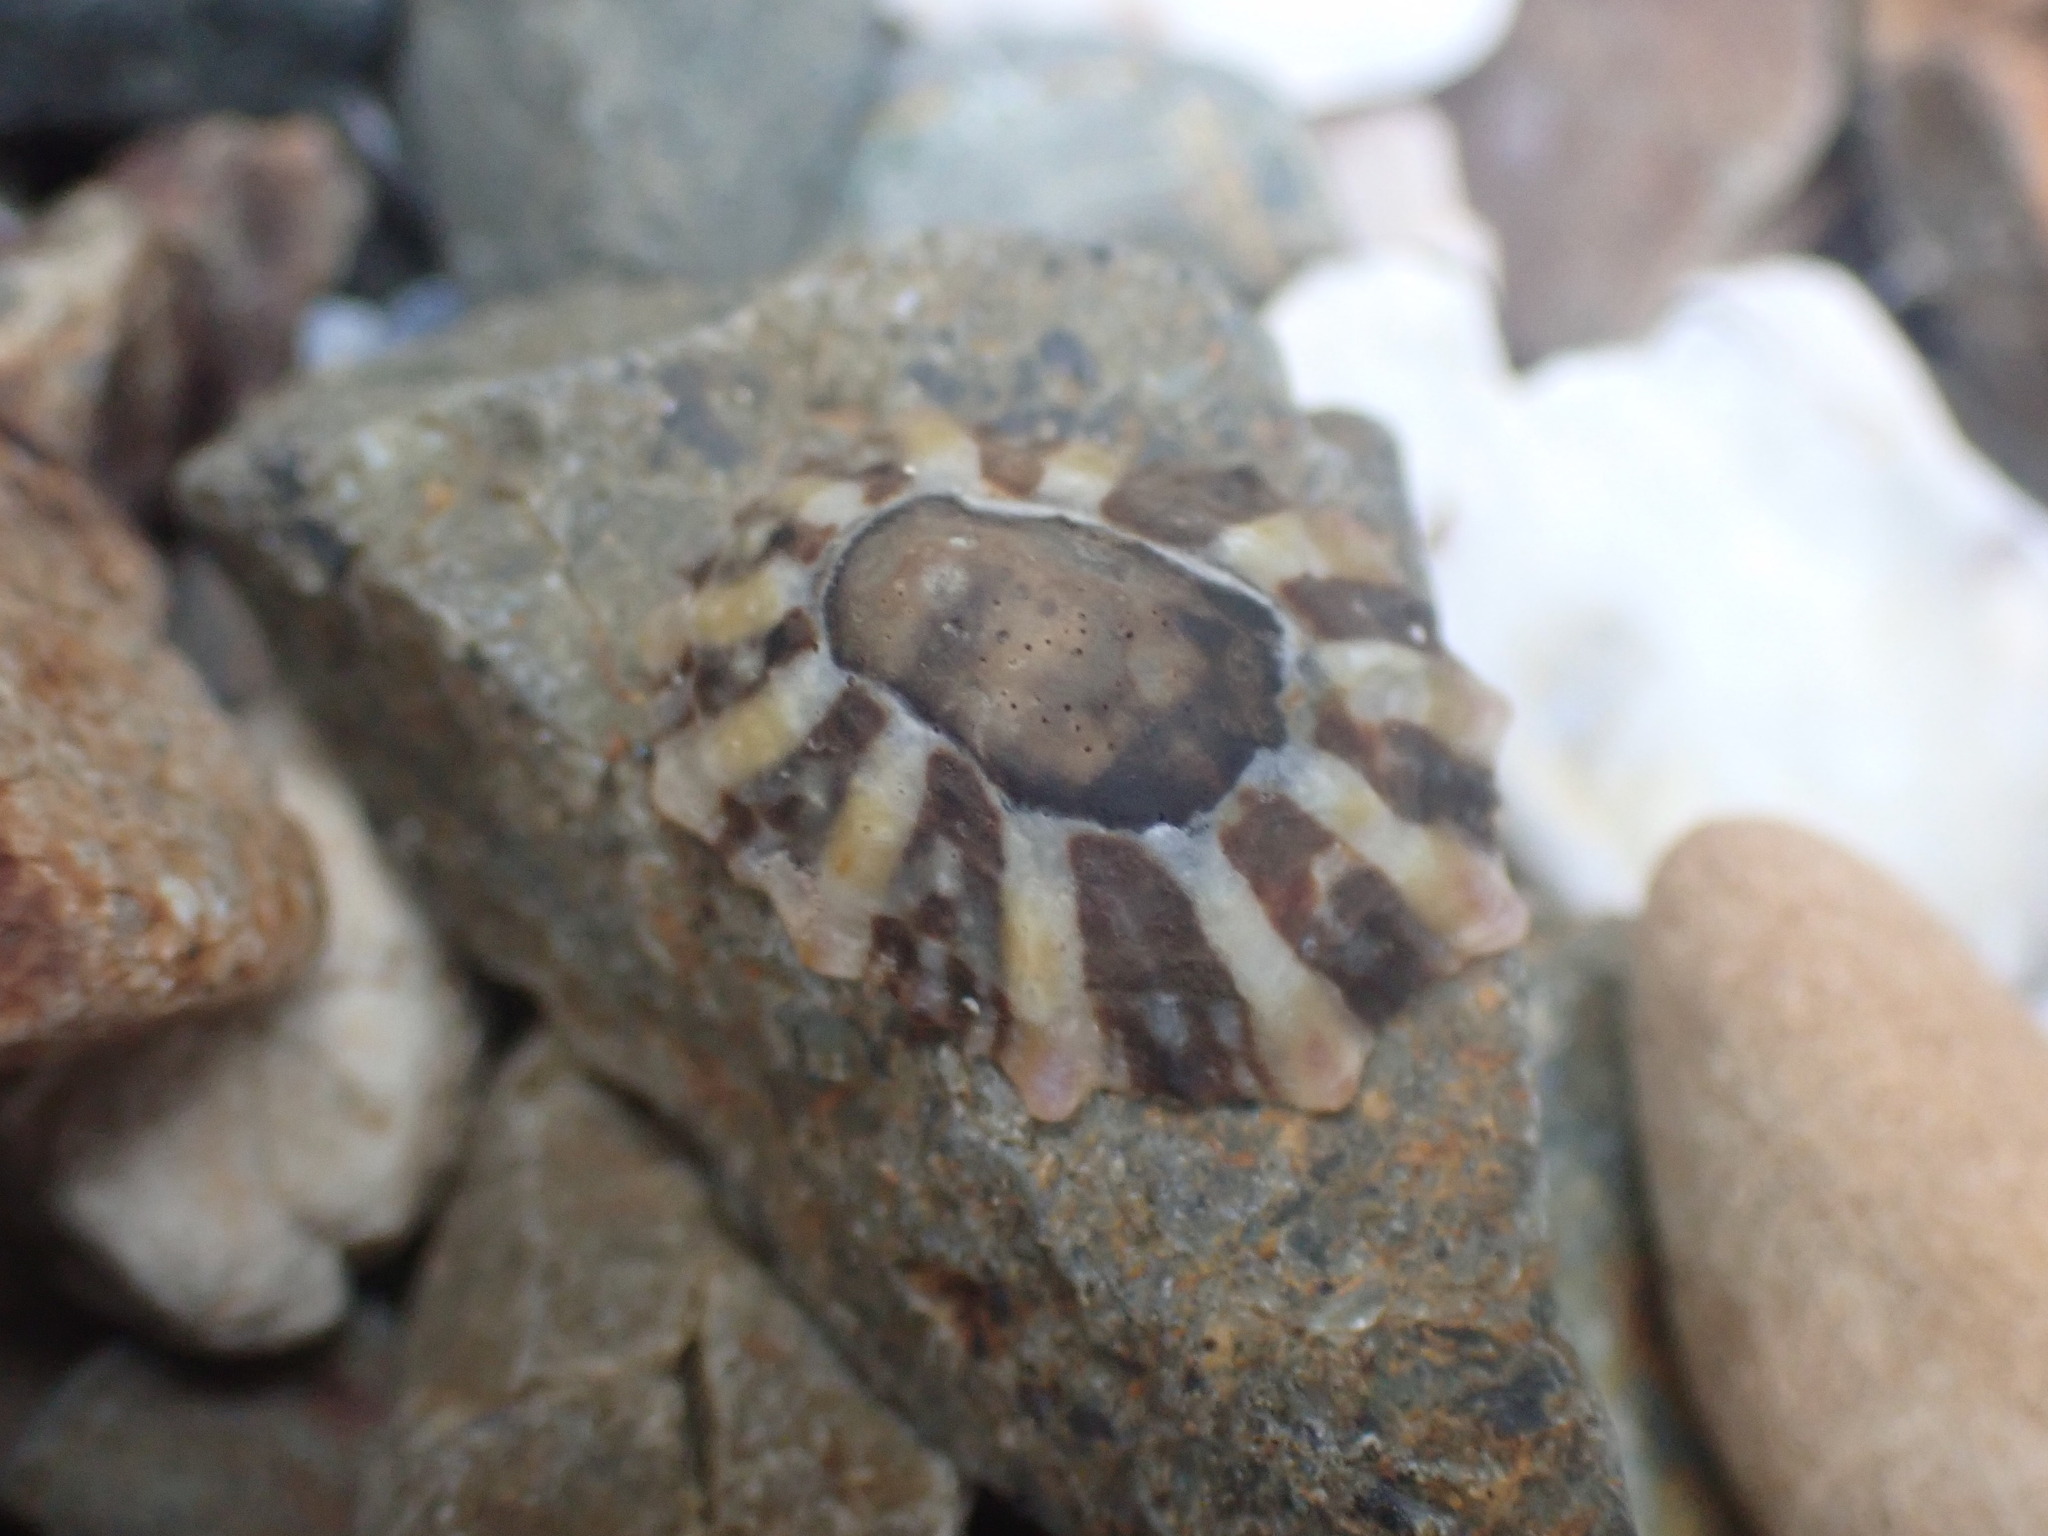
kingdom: Animalia
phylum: Mollusca
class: Gastropoda
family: Nacellidae
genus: Cellana
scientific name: Cellana ornata
